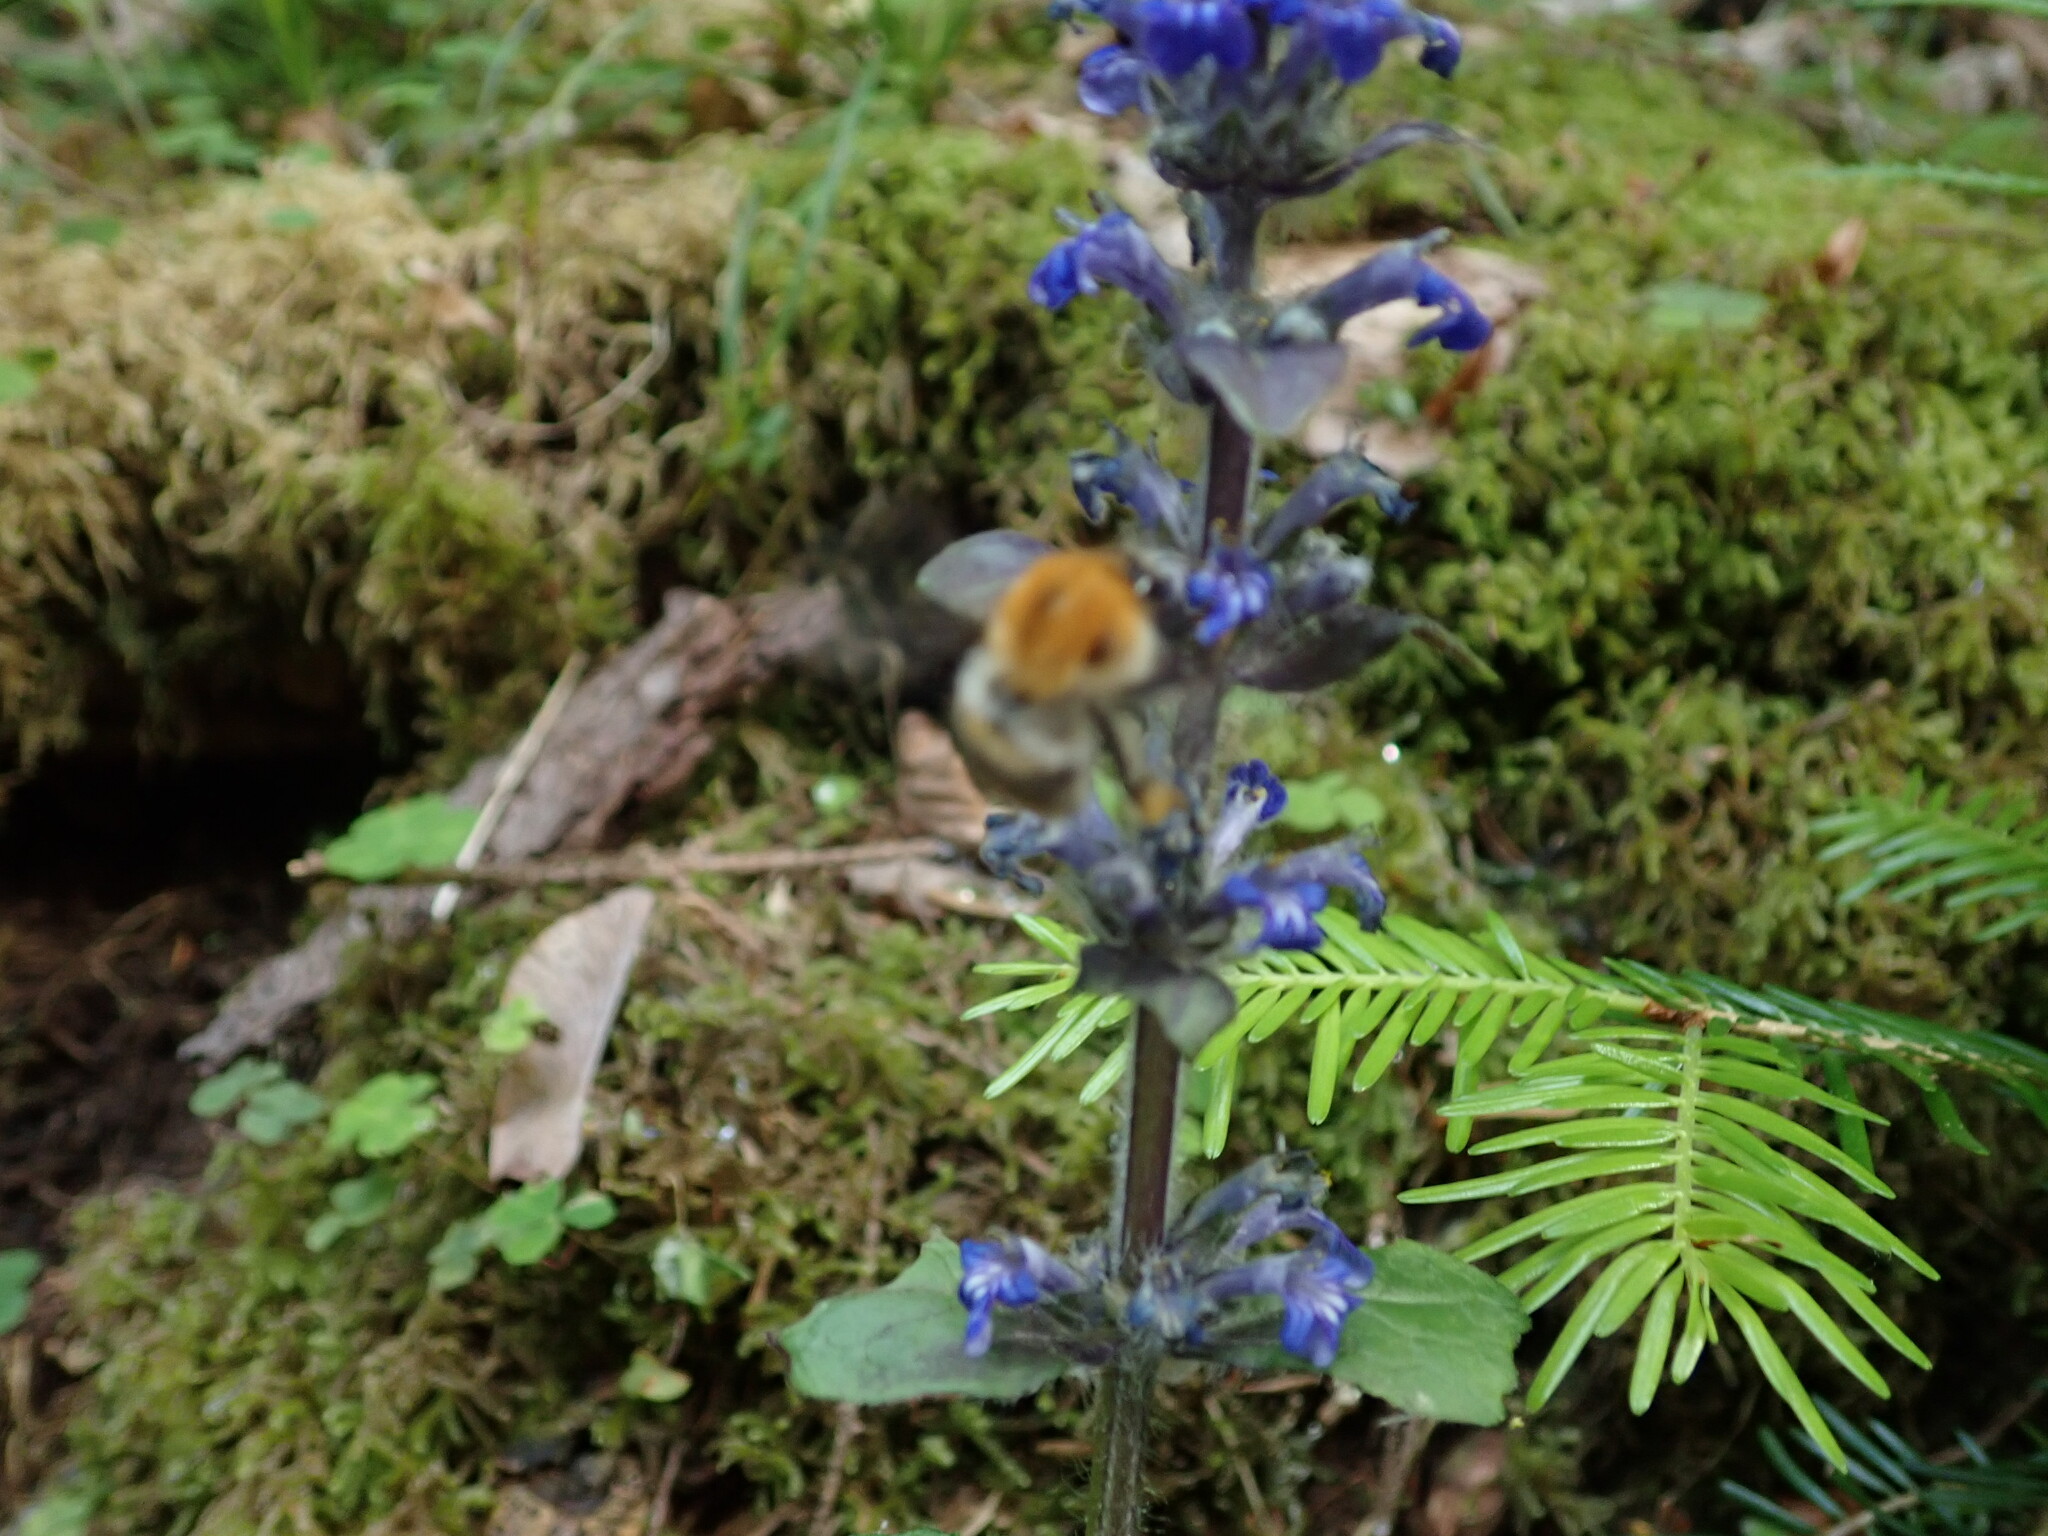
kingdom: Animalia
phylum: Arthropoda
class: Insecta
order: Hymenoptera
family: Apidae
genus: Bombus
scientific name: Bombus pascuorum
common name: Common carder bee
